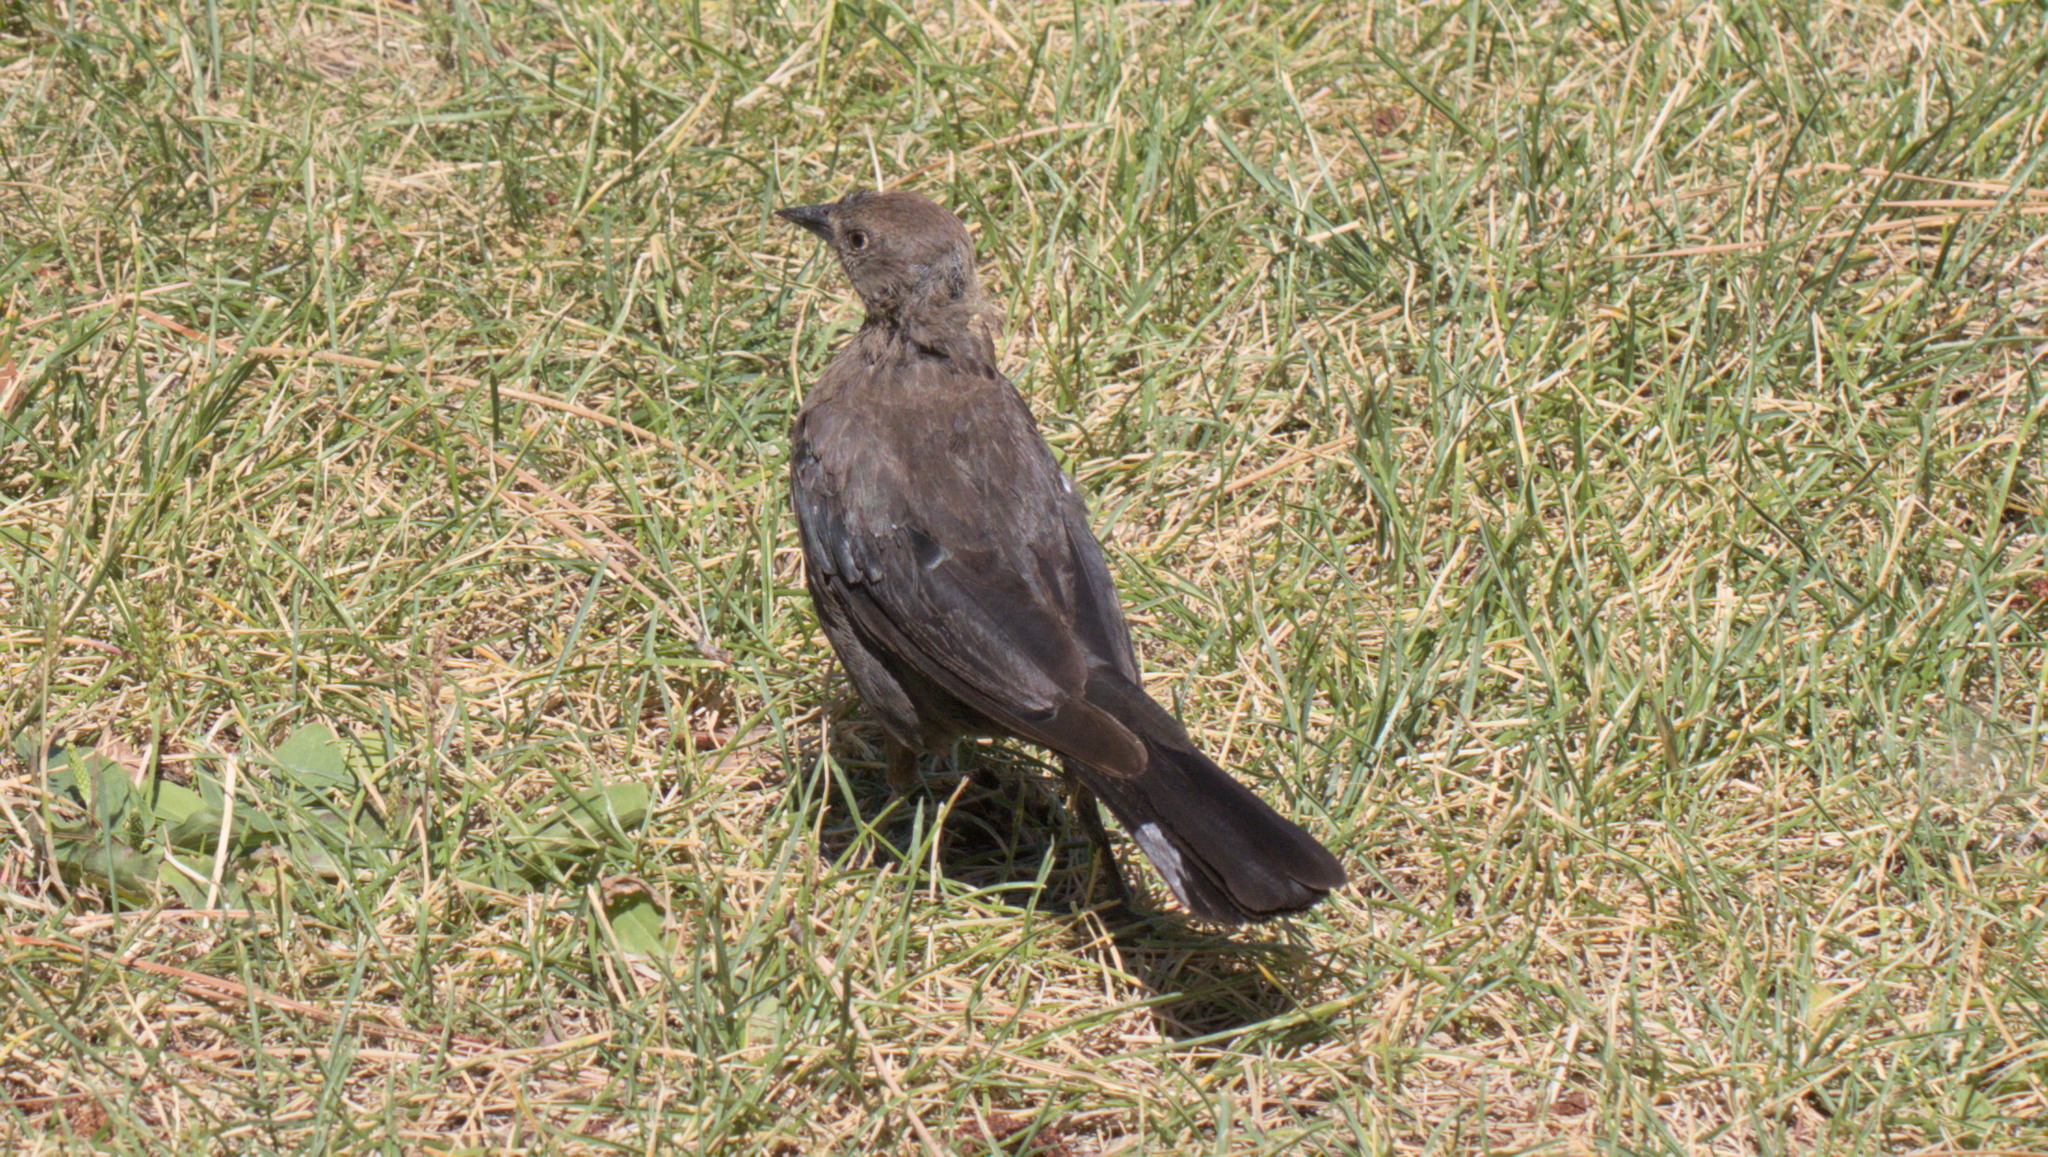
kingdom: Animalia
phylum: Chordata
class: Aves
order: Passeriformes
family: Icteridae
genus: Euphagus
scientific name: Euphagus cyanocephalus
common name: Brewer's blackbird
